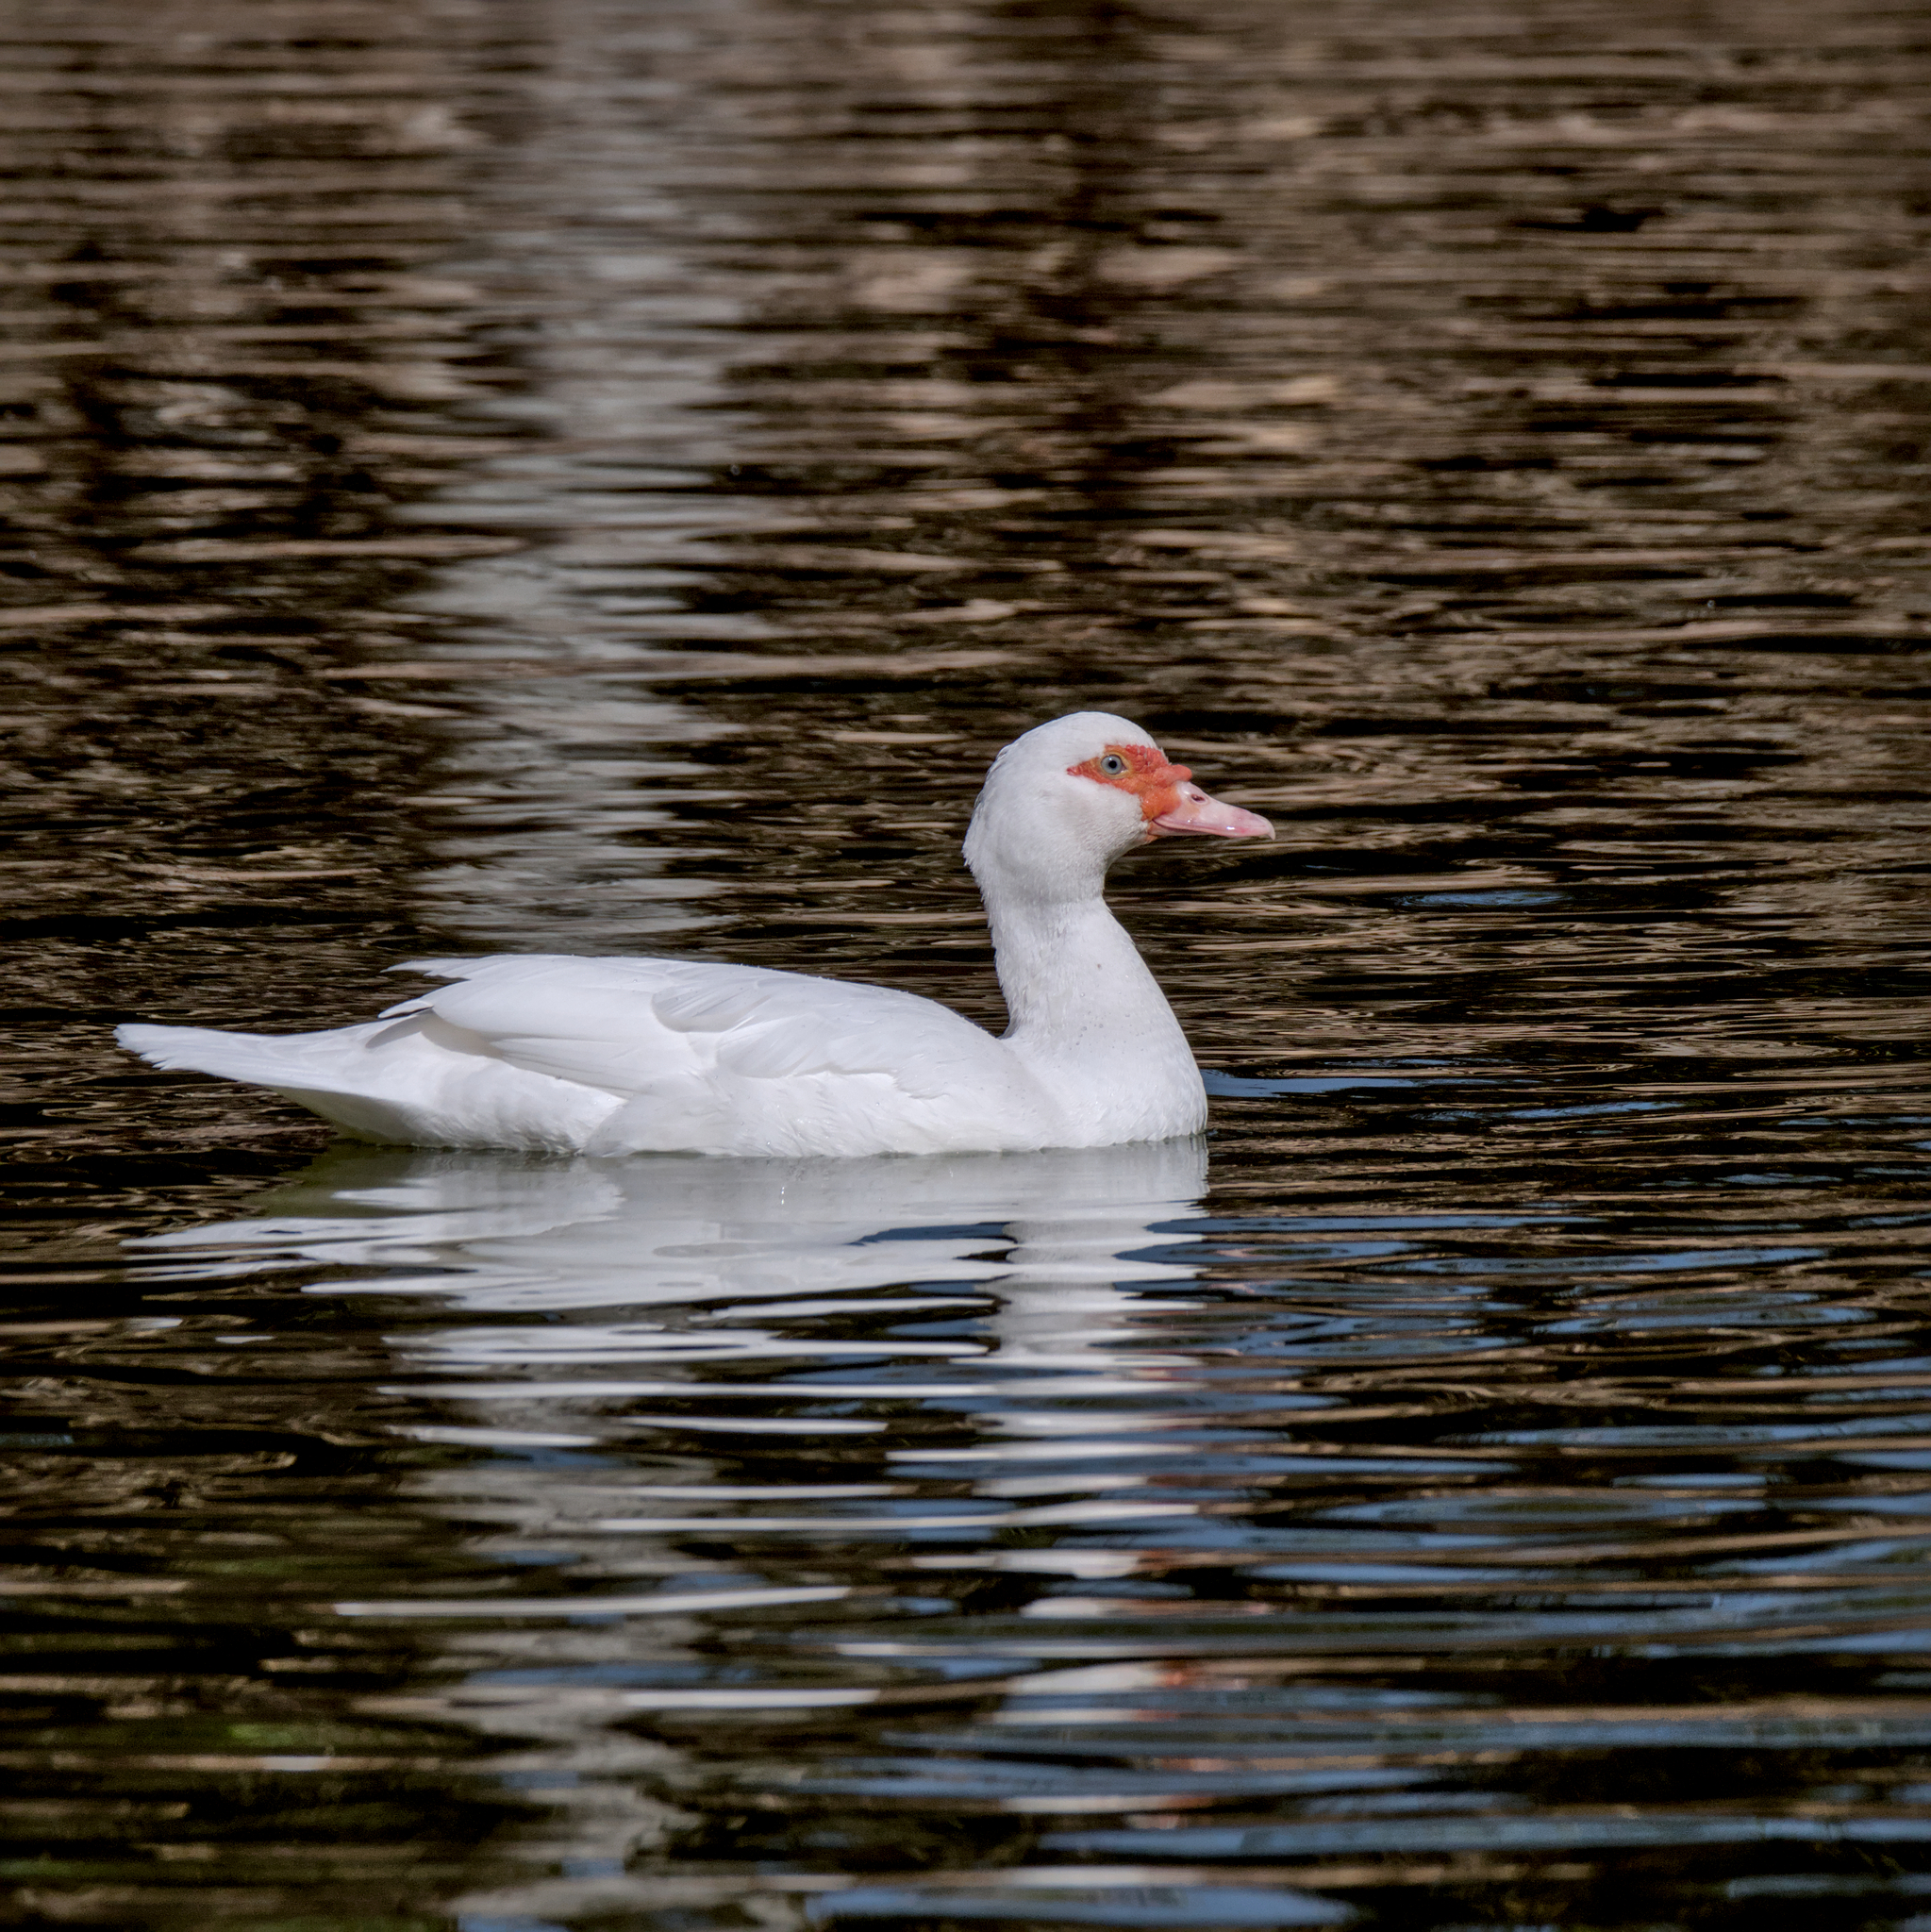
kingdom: Animalia
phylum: Chordata
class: Aves
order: Anseriformes
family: Anatidae
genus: Cairina
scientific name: Cairina moschata
